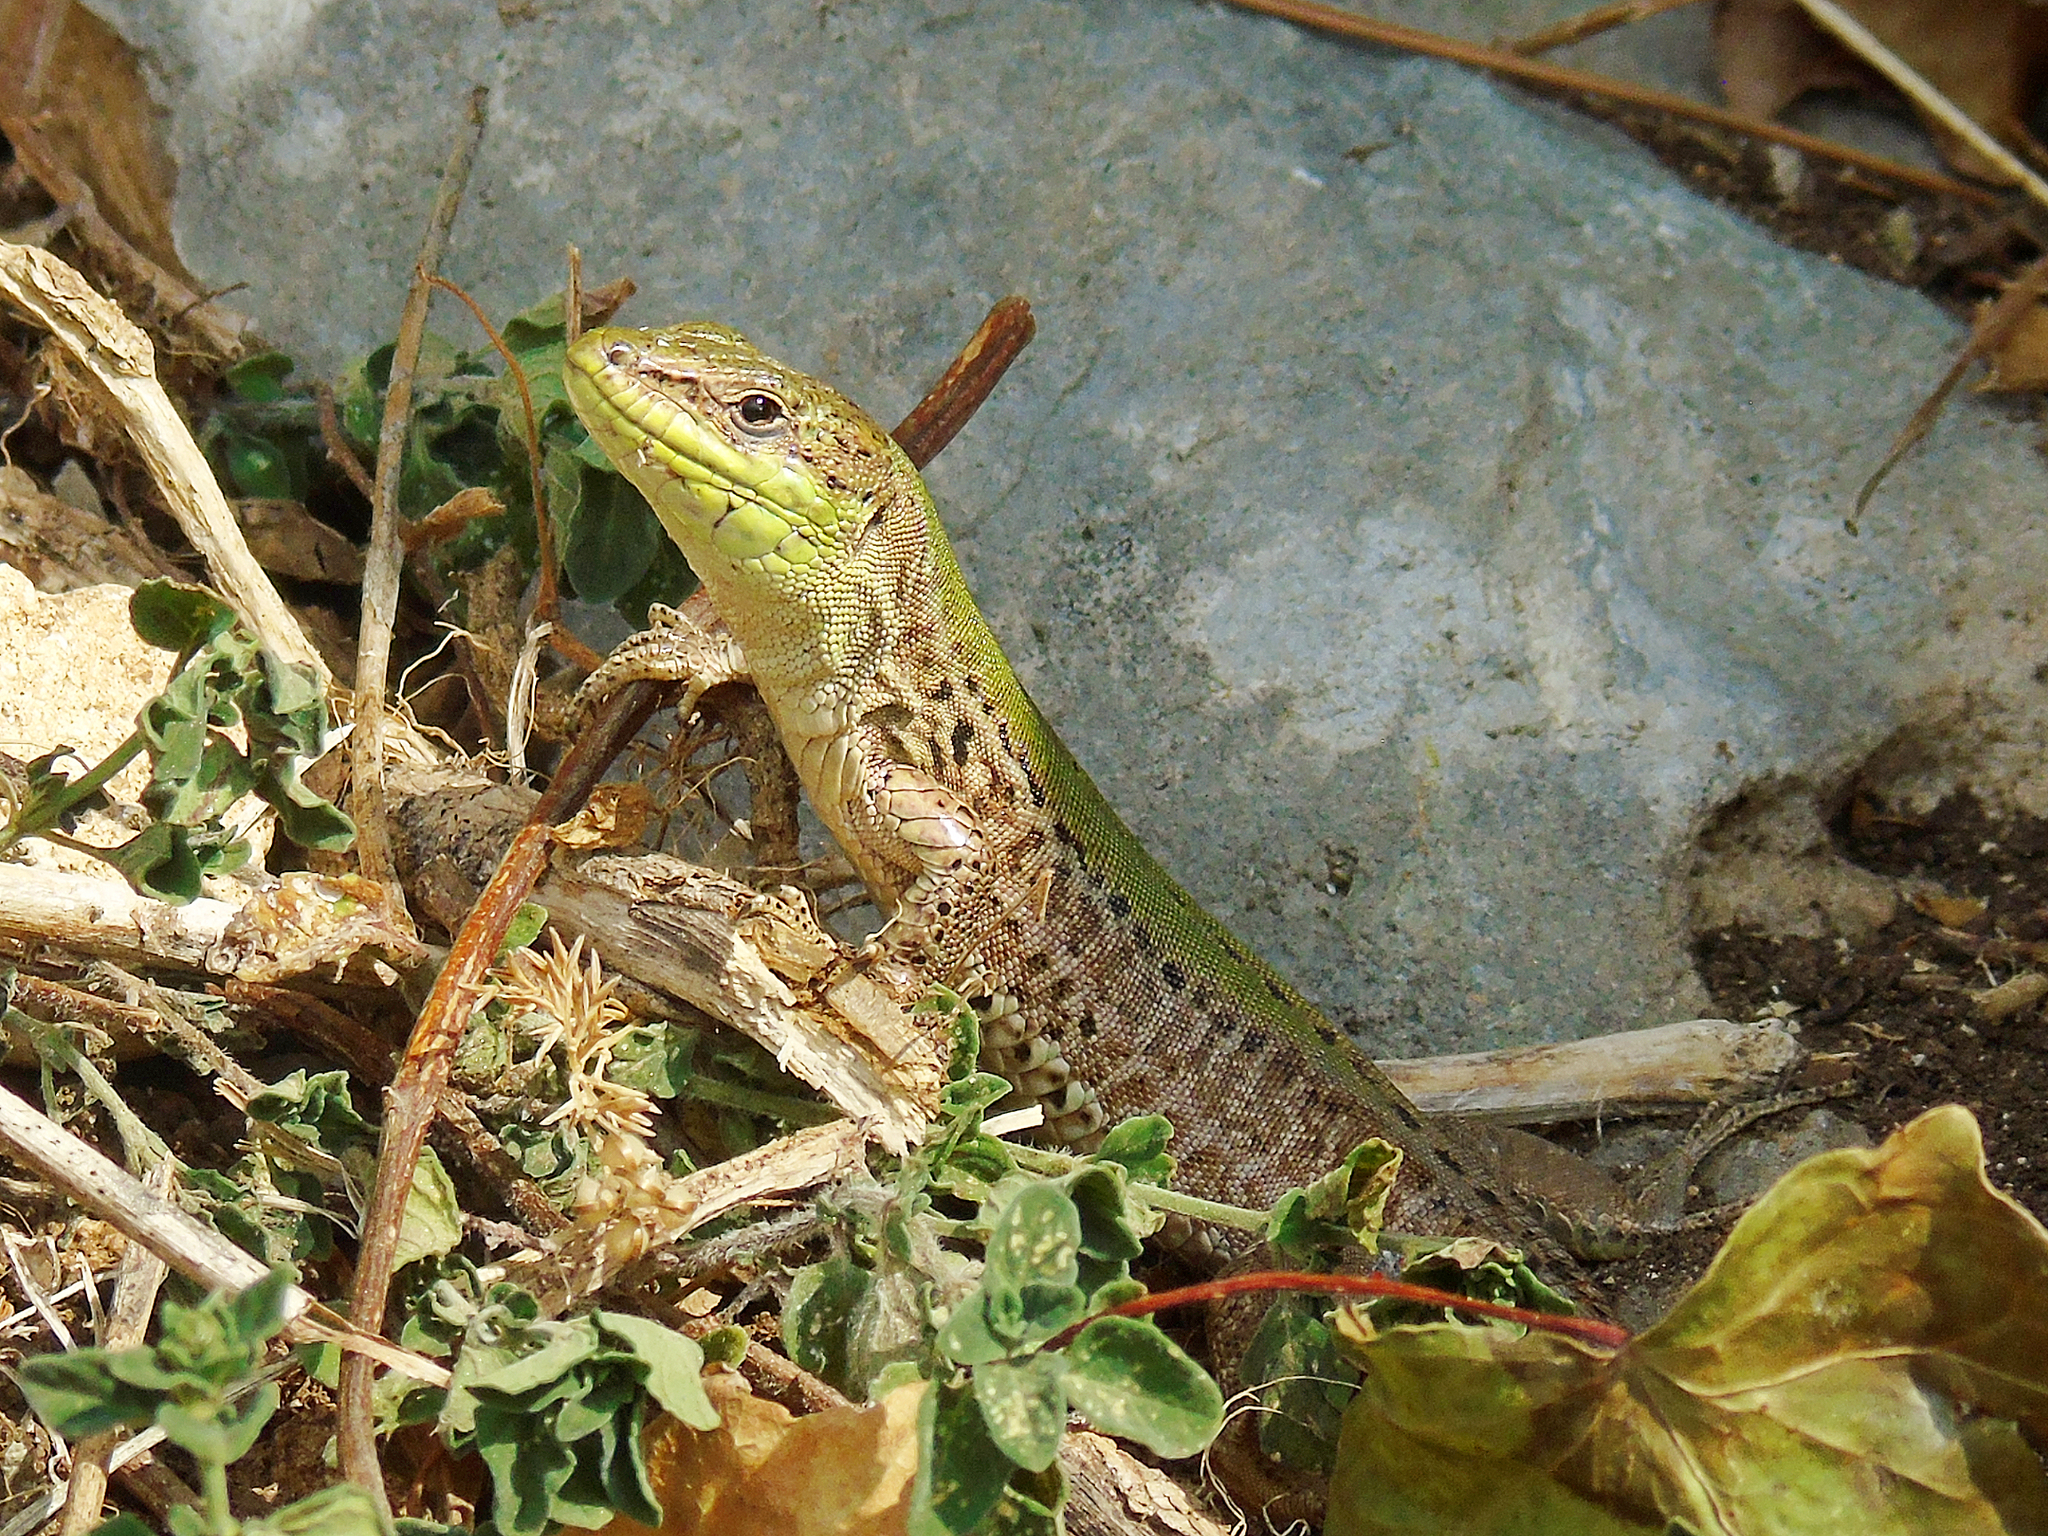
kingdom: Animalia
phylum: Chordata
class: Squamata
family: Lacertidae
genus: Podarcis
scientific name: Podarcis siculus
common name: Italian wall lizard
